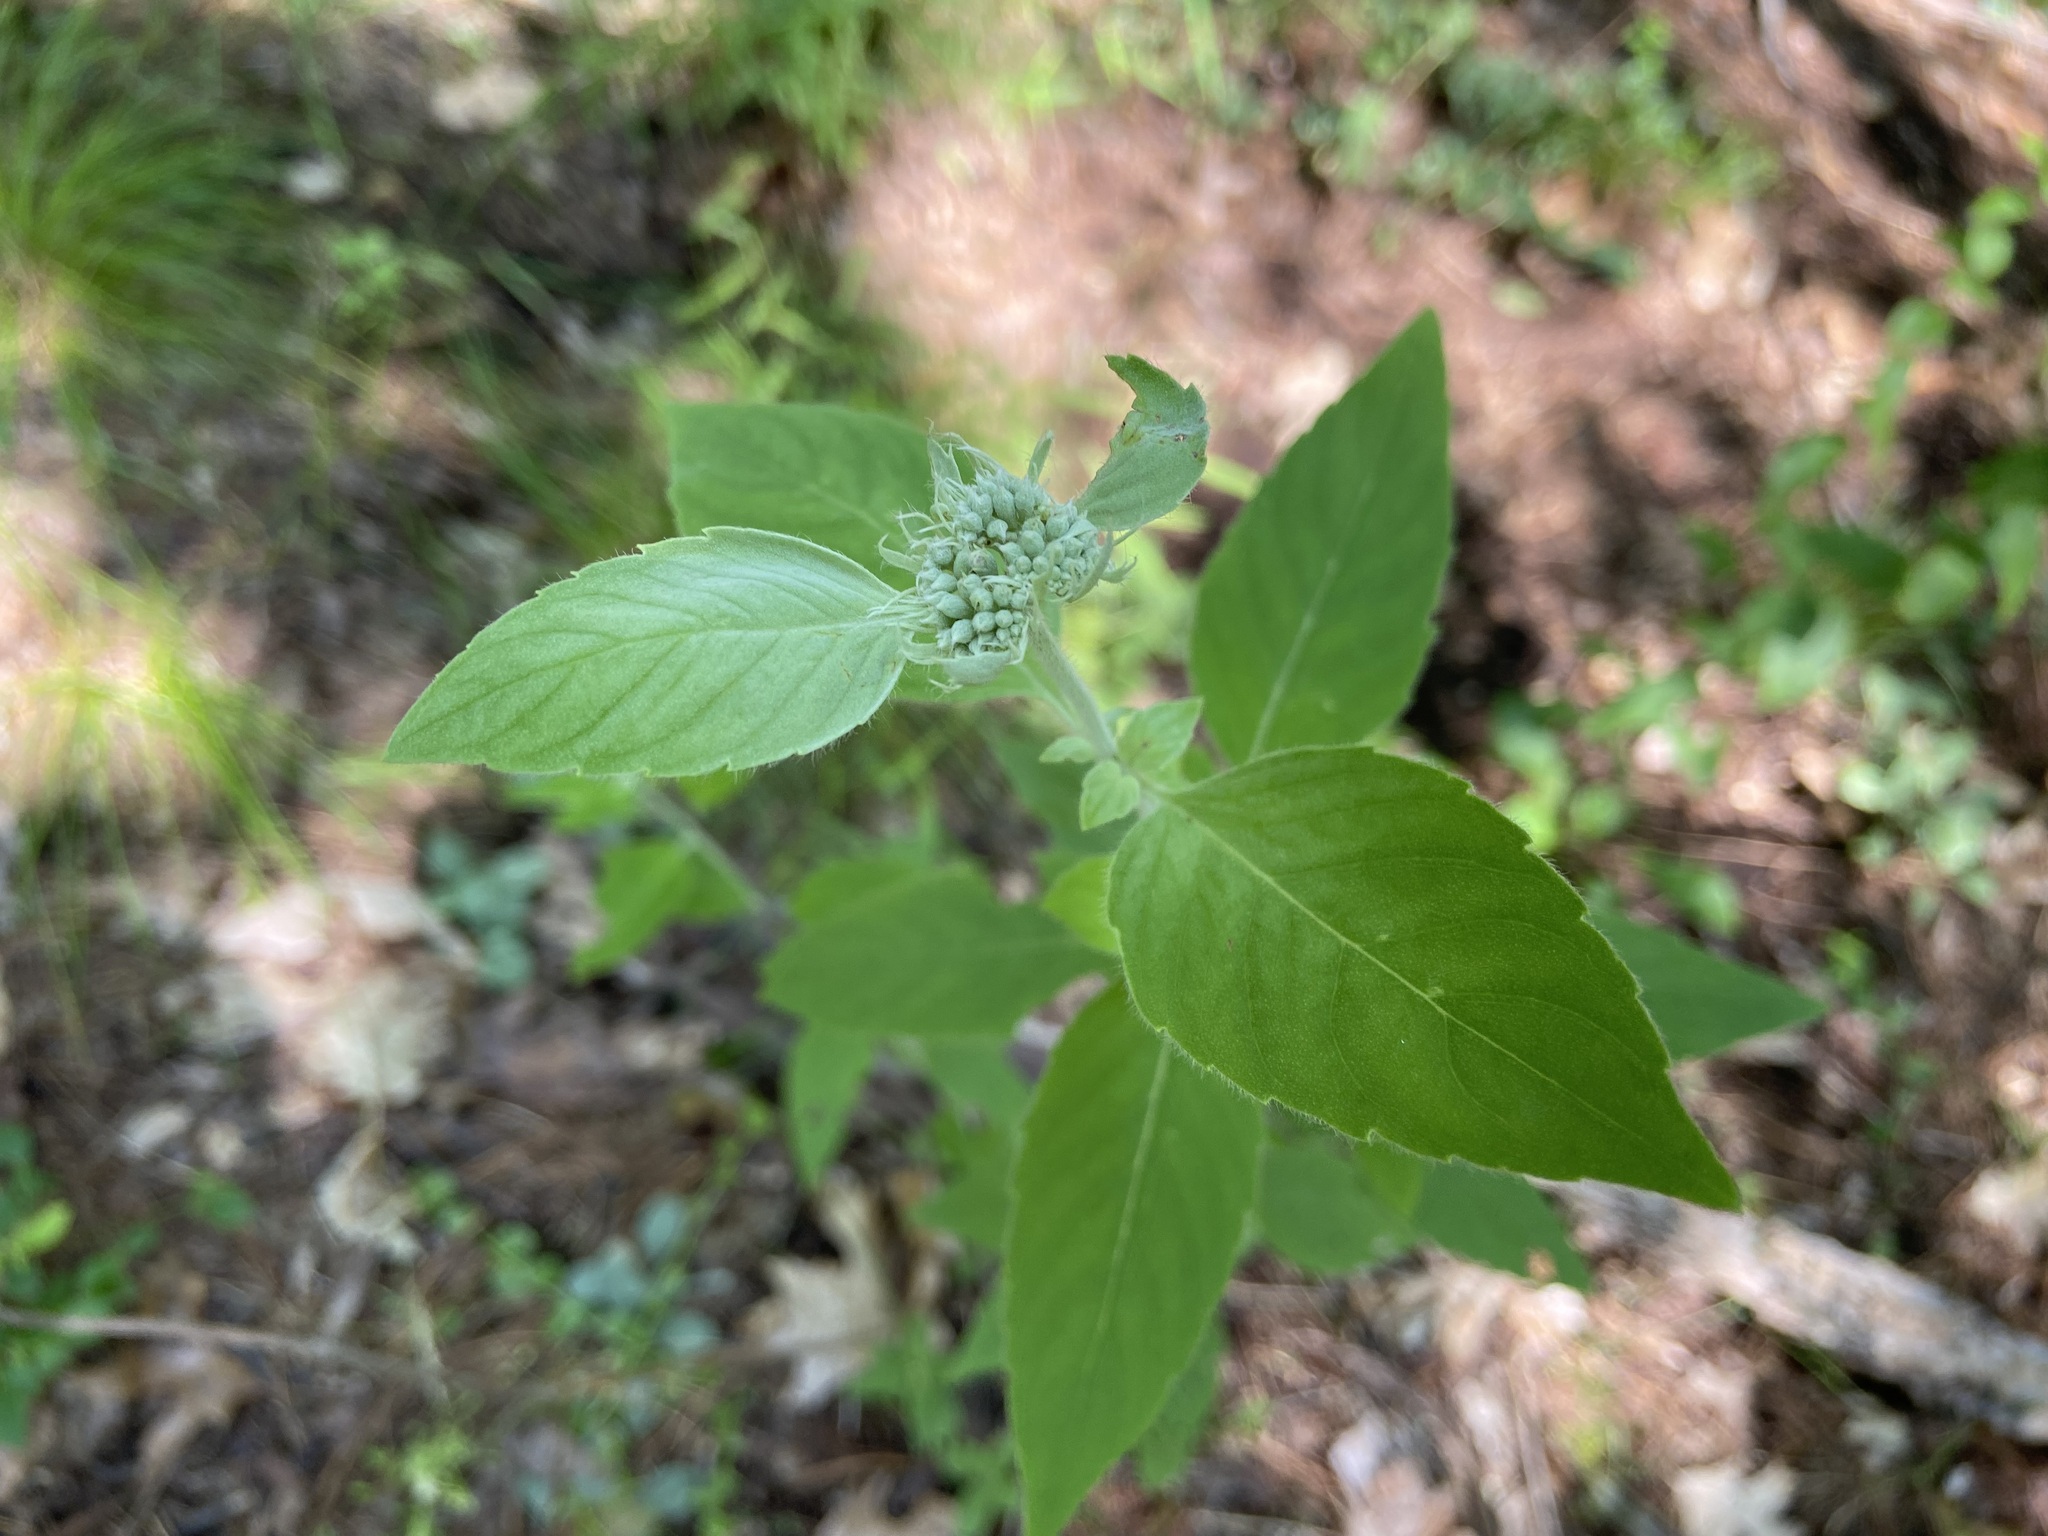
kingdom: Plantae
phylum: Tracheophyta
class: Magnoliopsida
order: Lamiales
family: Lamiaceae
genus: Pycnanthemum
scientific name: Pycnanthemum incanum
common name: Hoary mountain-mint
